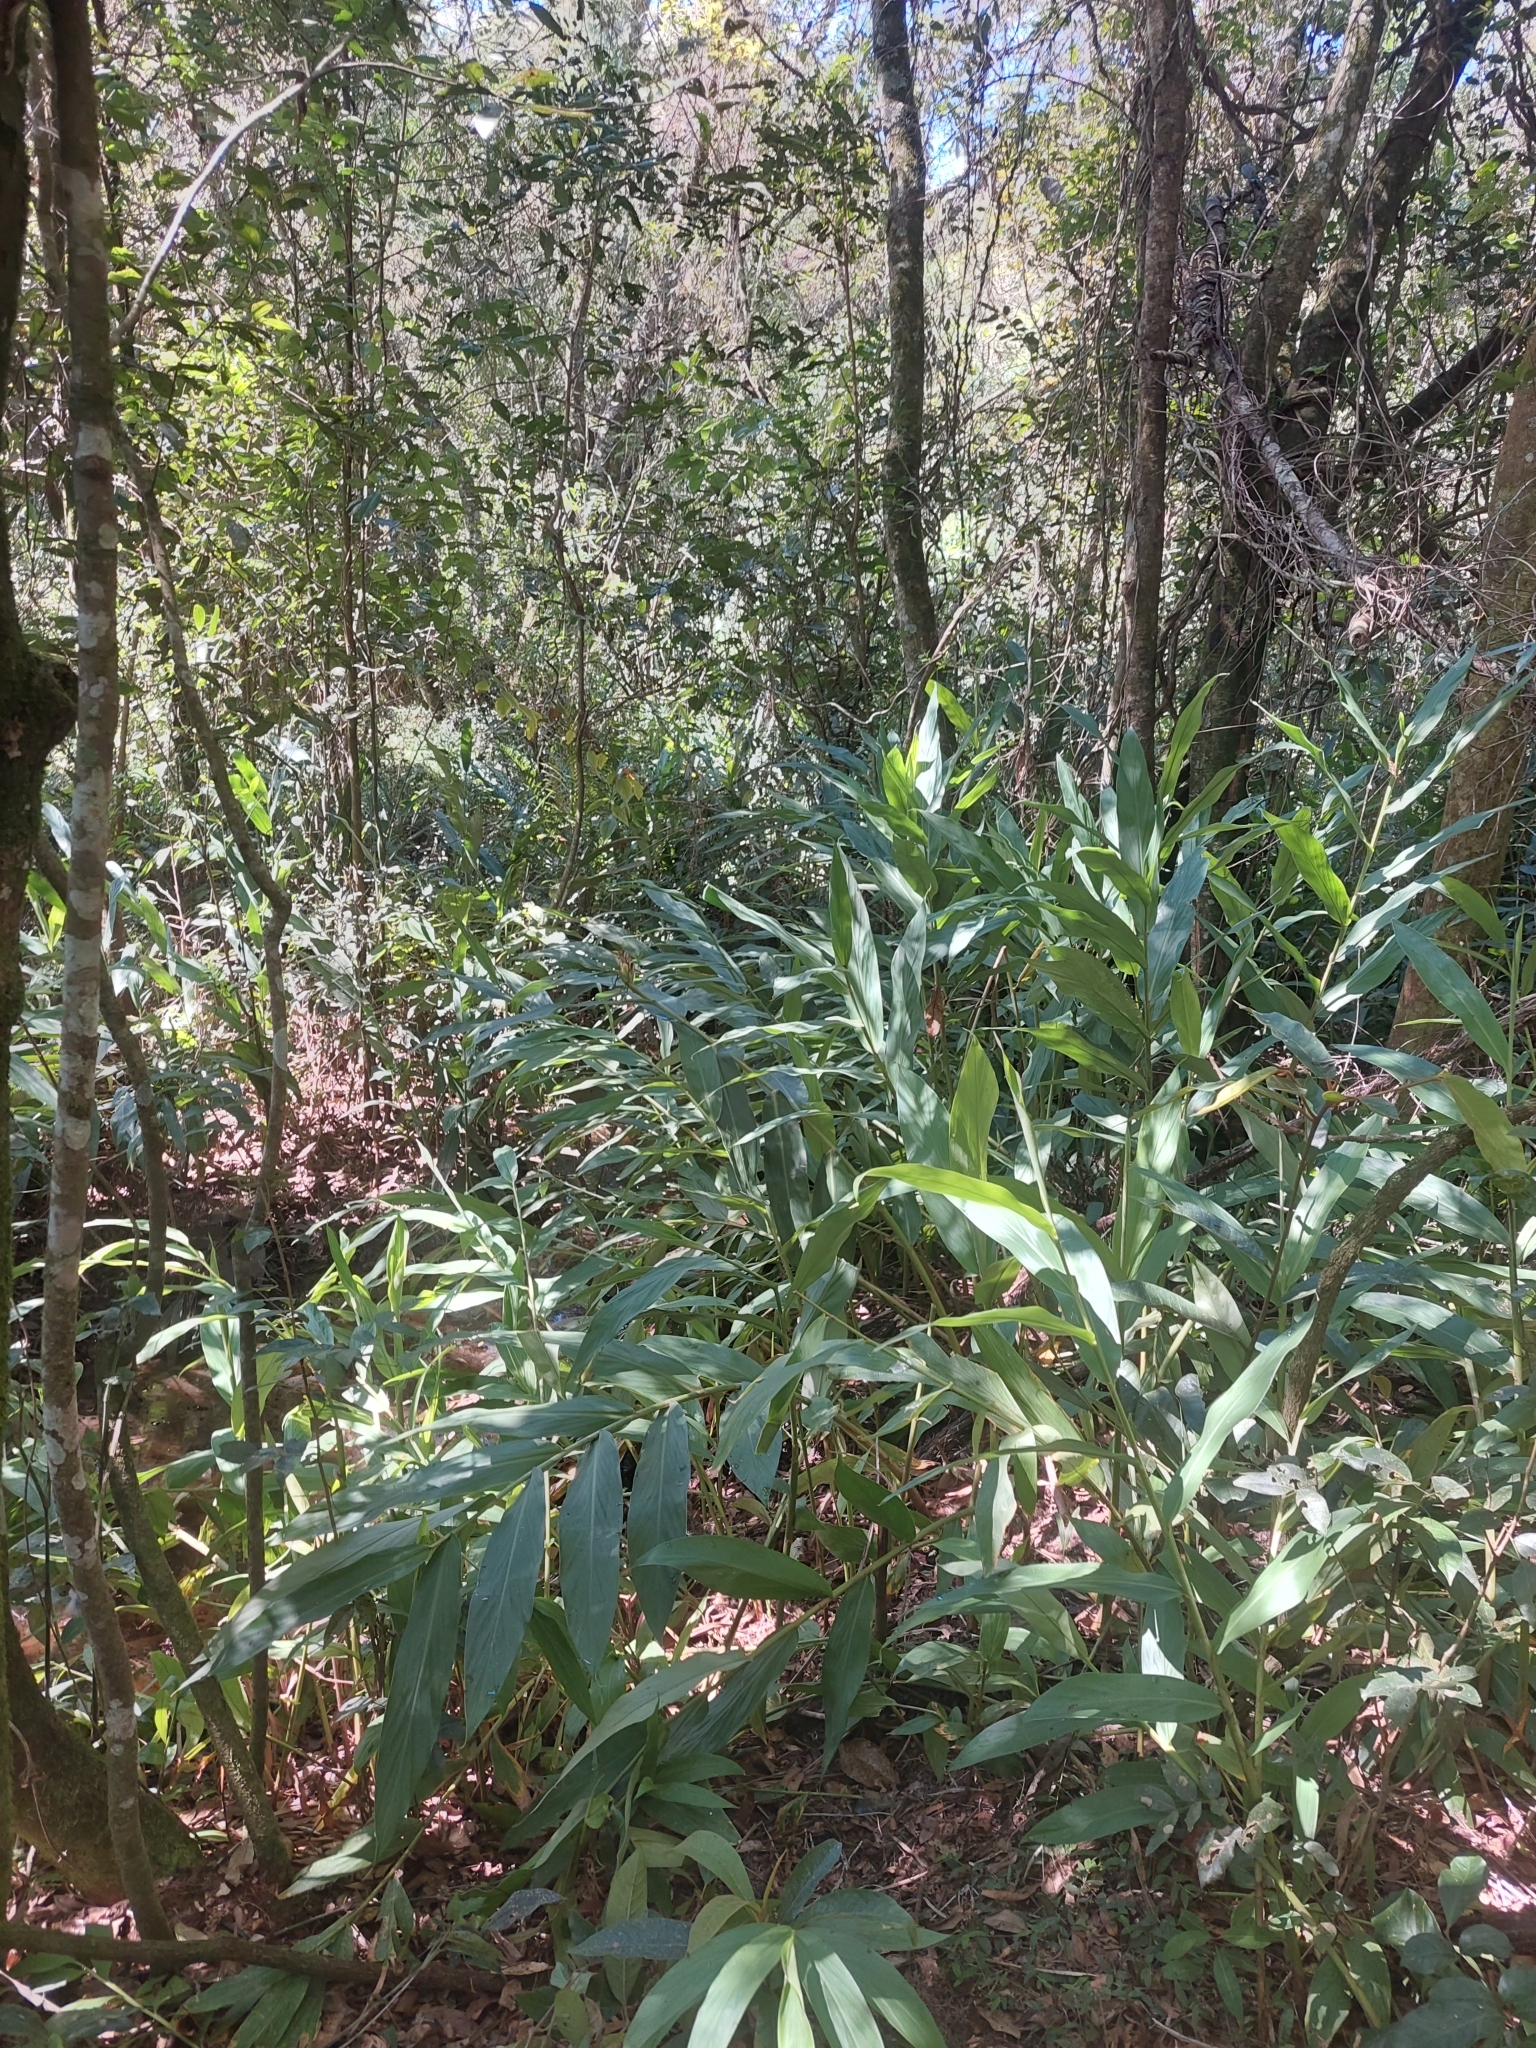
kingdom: Plantae
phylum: Tracheophyta
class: Liliopsida
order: Zingiberales
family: Zingiberaceae
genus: Hedychium
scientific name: Hedychium coronarium
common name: White garland-lily
